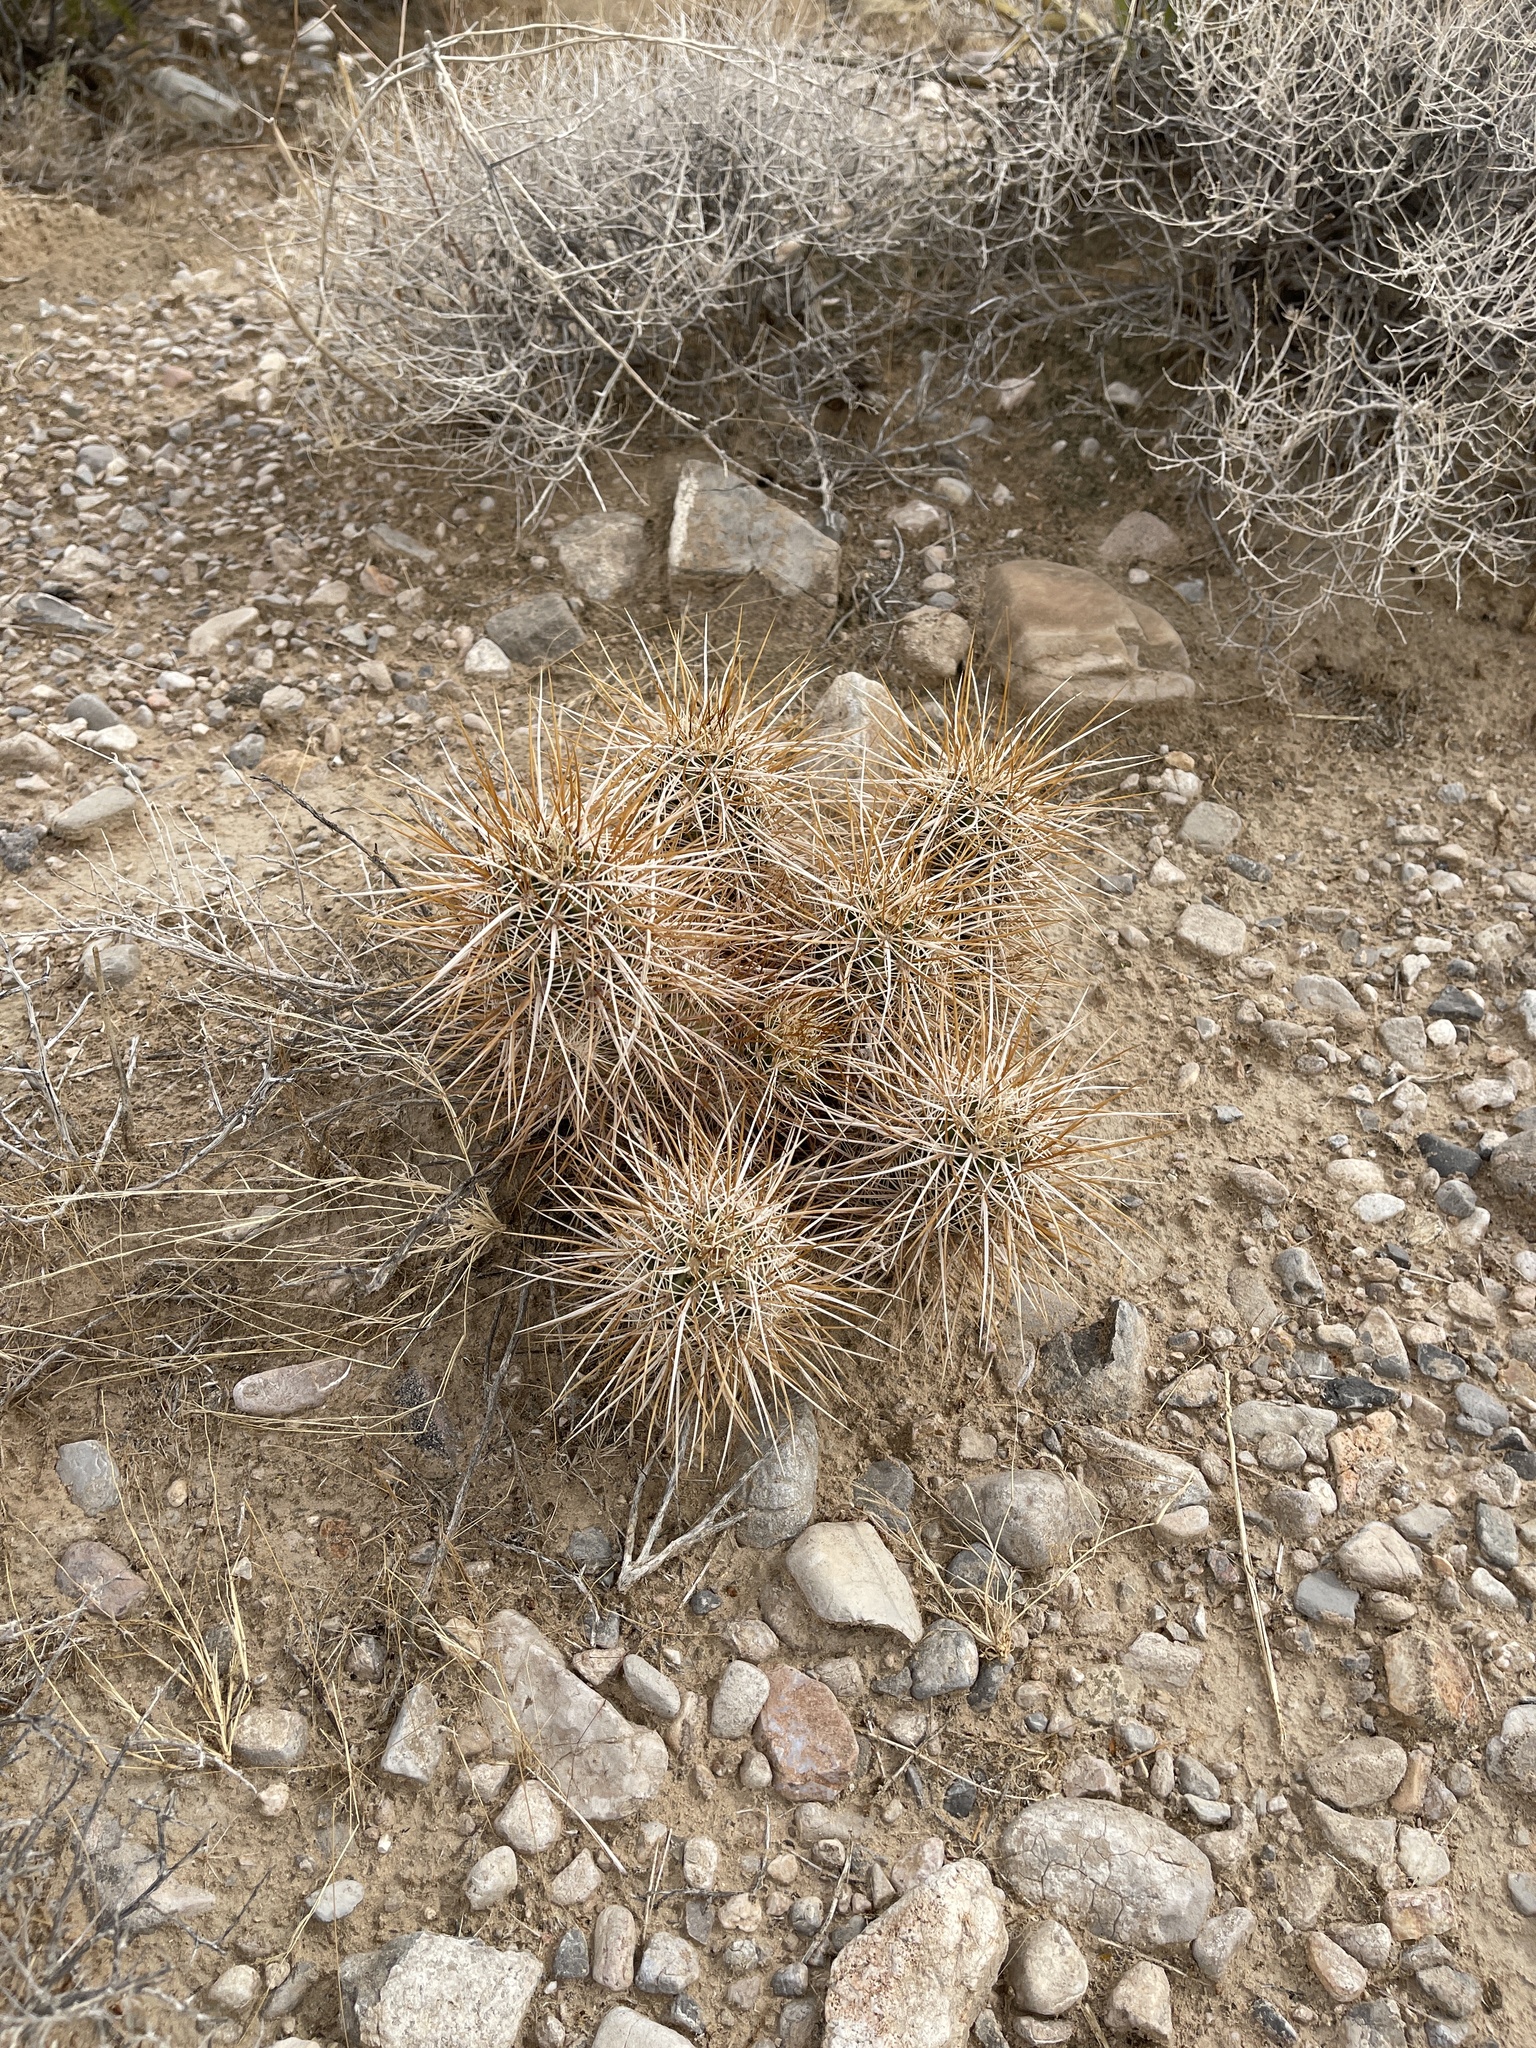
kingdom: Plantae
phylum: Tracheophyta
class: Magnoliopsida
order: Caryophyllales
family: Cactaceae
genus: Echinocereus
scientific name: Echinocereus engelmannii
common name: Engelmann's hedgehog cactus
